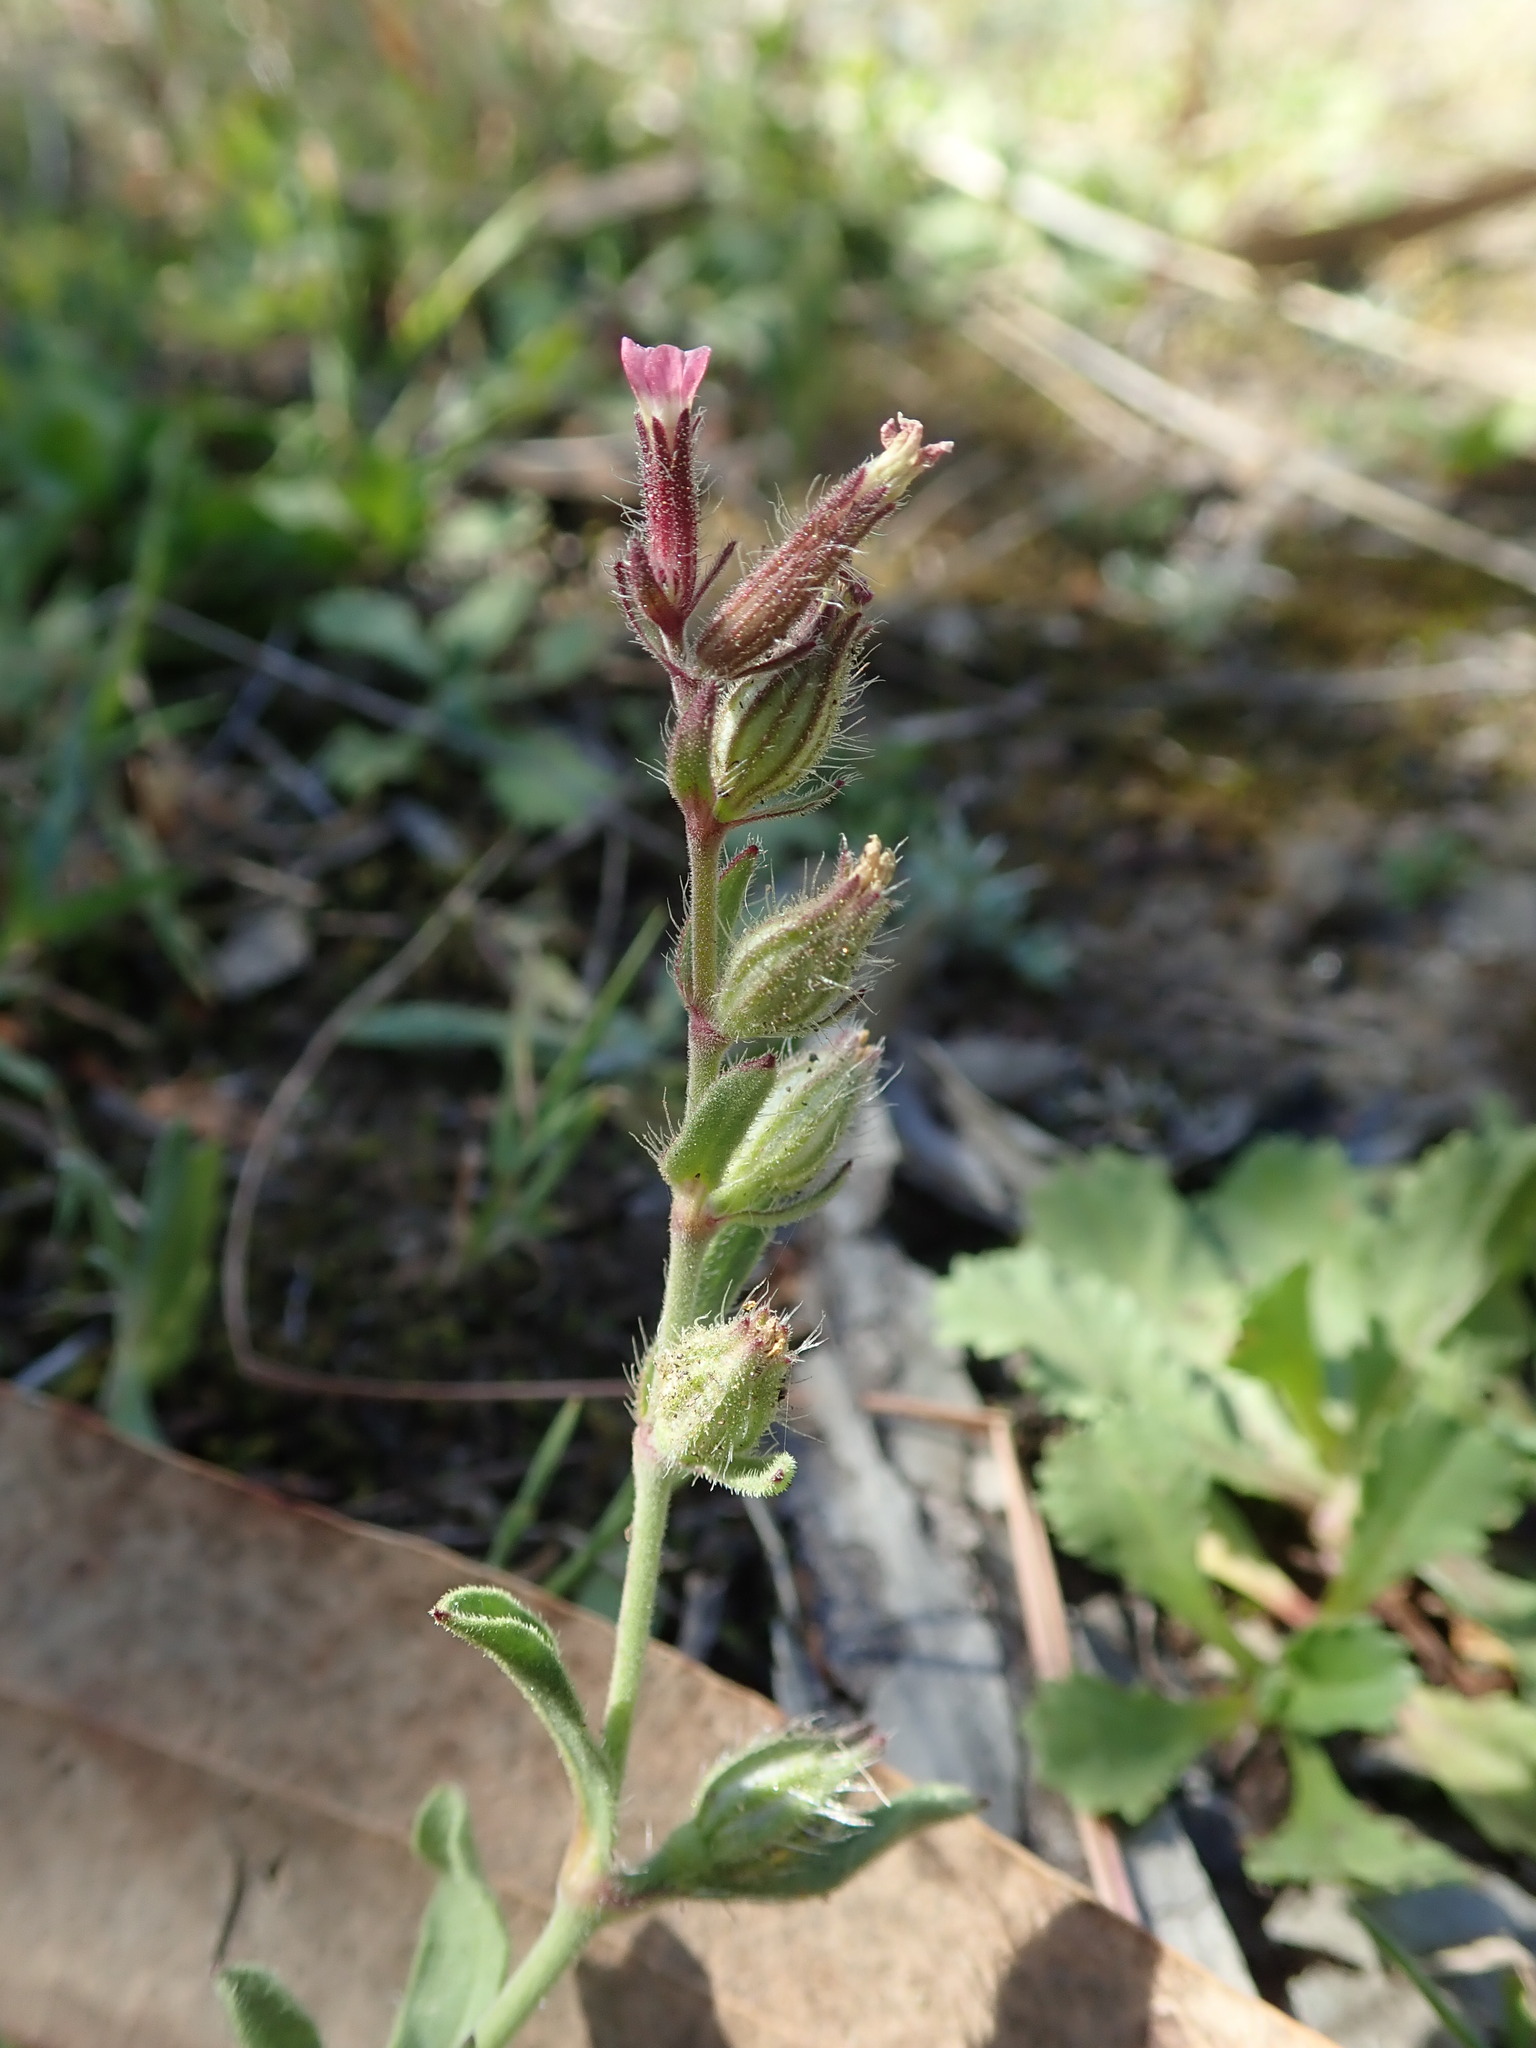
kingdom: Plantae
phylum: Tracheophyta
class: Magnoliopsida
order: Caryophyllales
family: Caryophyllaceae
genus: Silene
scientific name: Silene gallica
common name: Small-flowered catchfly
